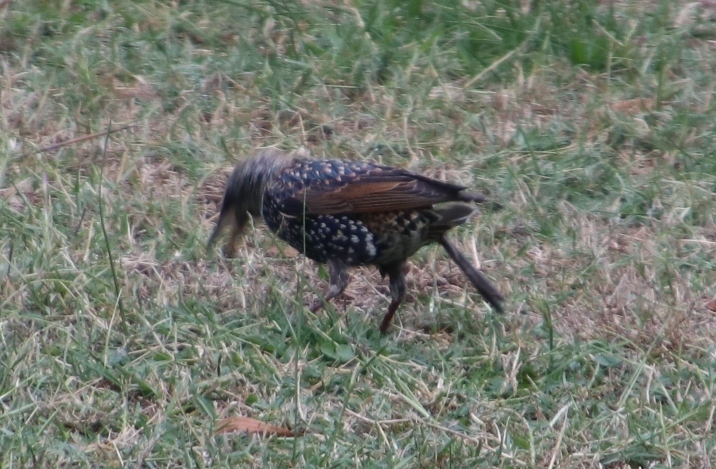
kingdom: Animalia
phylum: Chordata
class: Aves
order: Passeriformes
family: Sturnidae
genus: Sturnus
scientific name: Sturnus vulgaris
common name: Common starling
